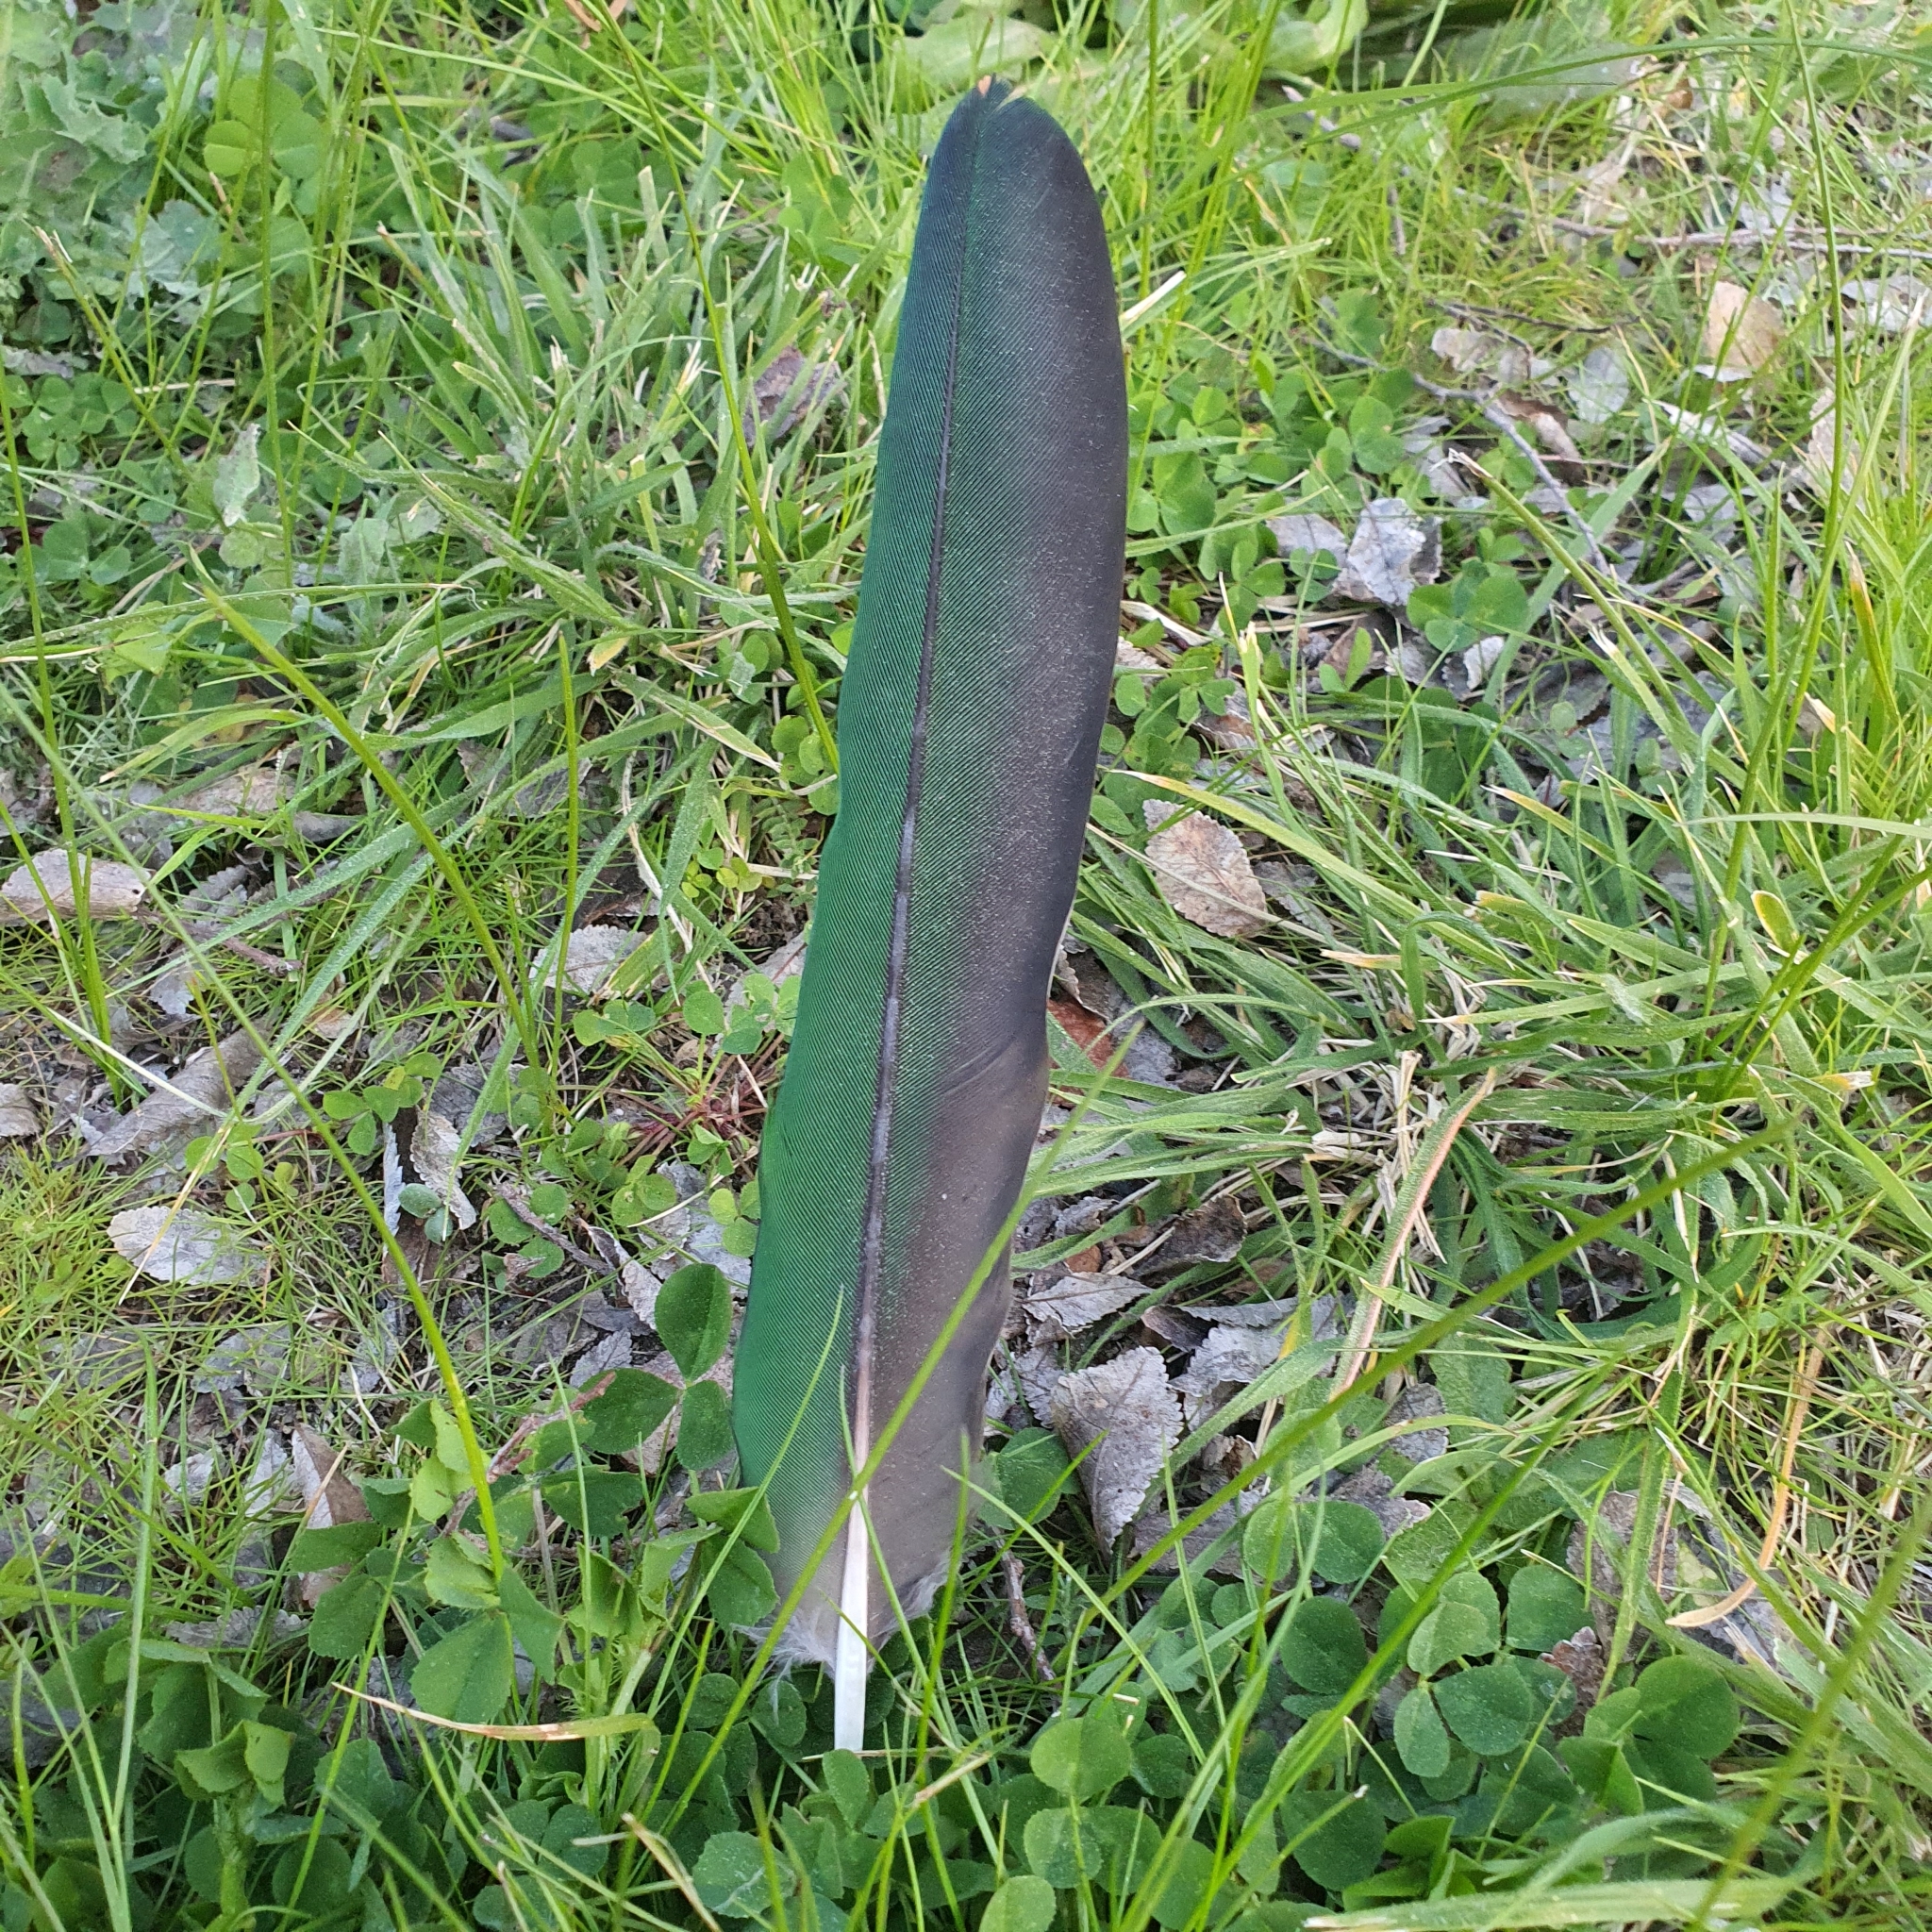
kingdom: Animalia
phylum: Chordata
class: Aves
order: Psittaciformes
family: Psittacidae
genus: Alisterus
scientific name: Alisterus scapularis
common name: Australian king parrot
